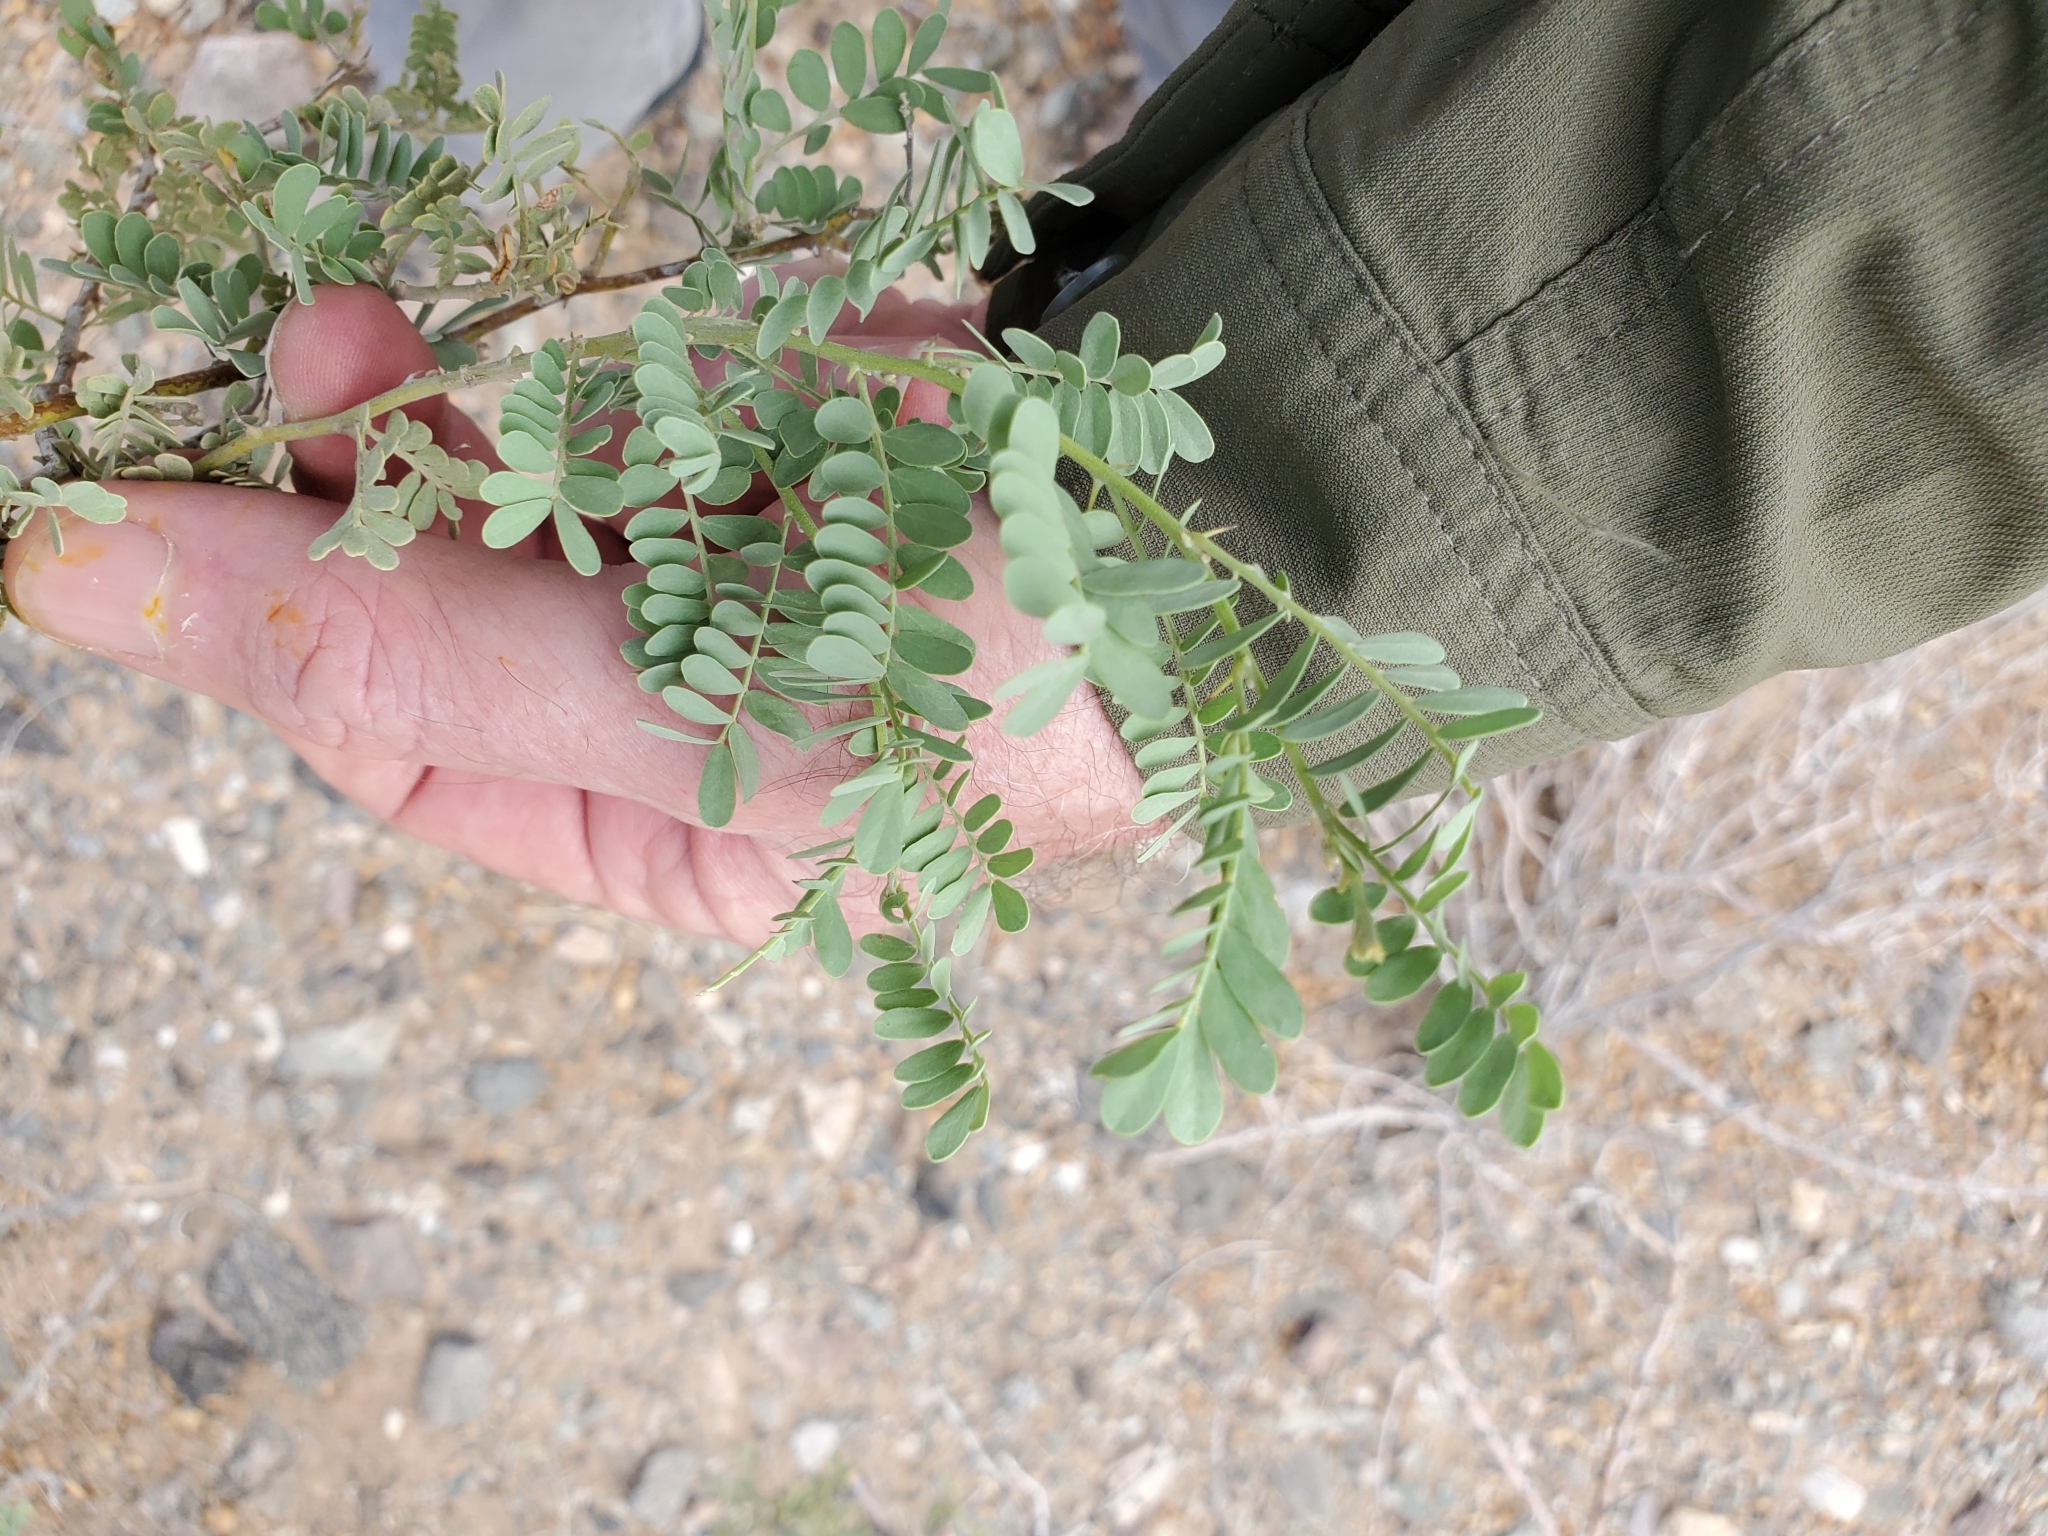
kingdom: Plantae
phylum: Tracheophyta
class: Magnoliopsida
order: Fabales
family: Fabaceae
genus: Olneya
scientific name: Olneya tesota
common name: Desert ironwood
